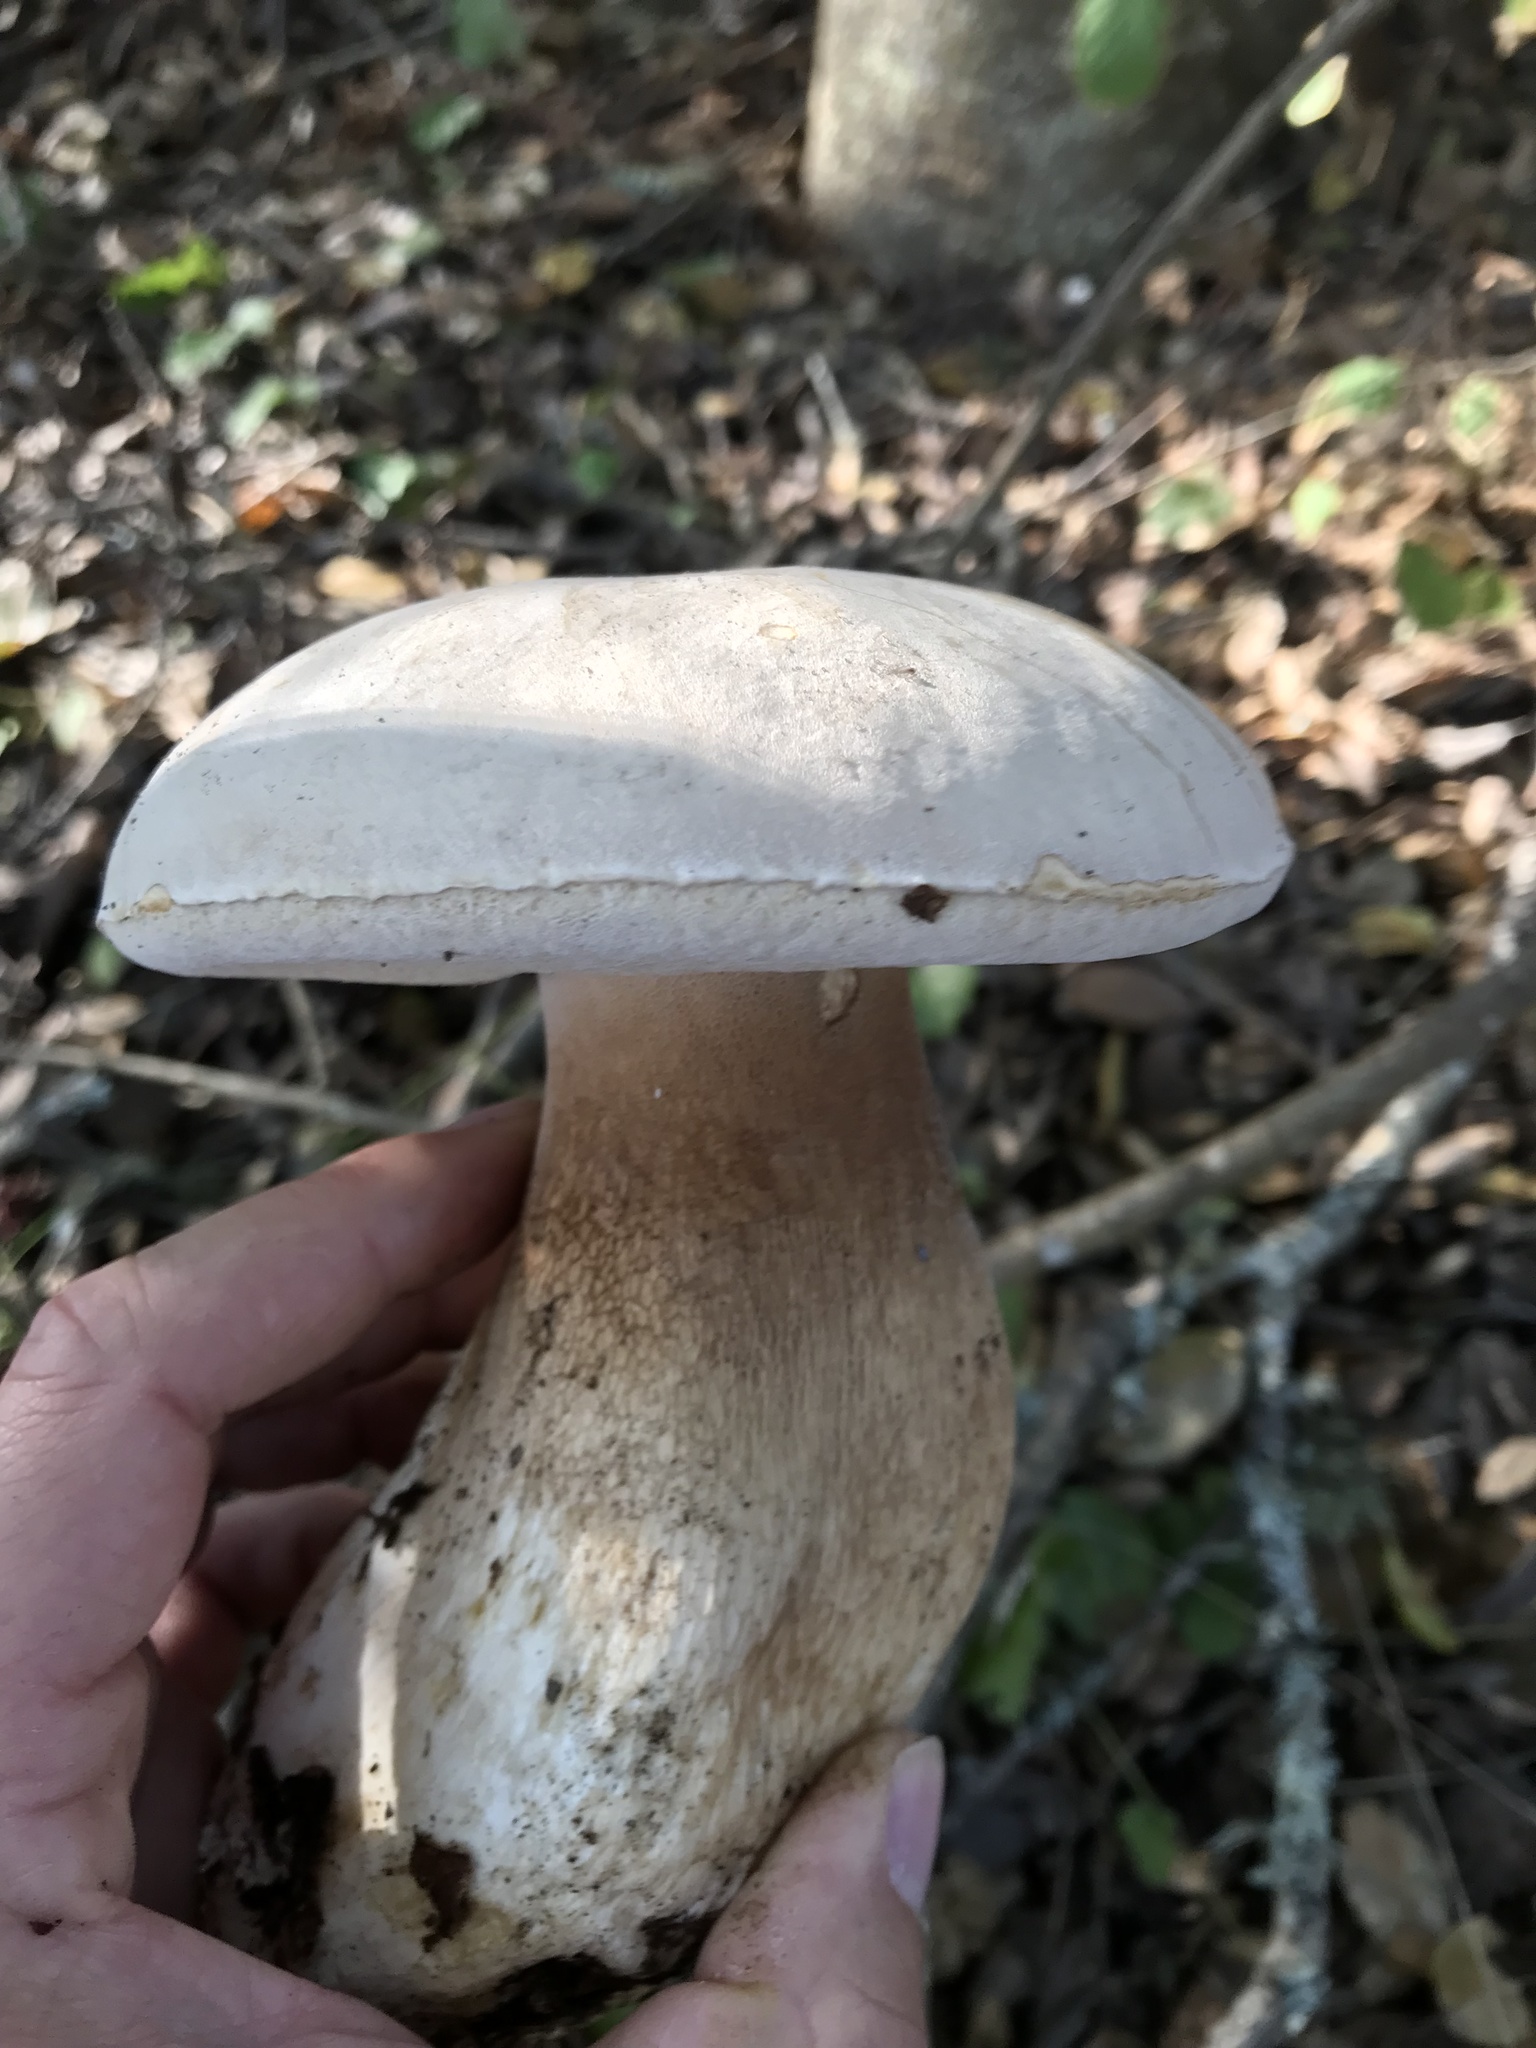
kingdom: Fungi
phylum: Basidiomycota
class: Agaricomycetes
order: Boletales
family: Boletaceae
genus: Boletus
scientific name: Boletus barrowsii
